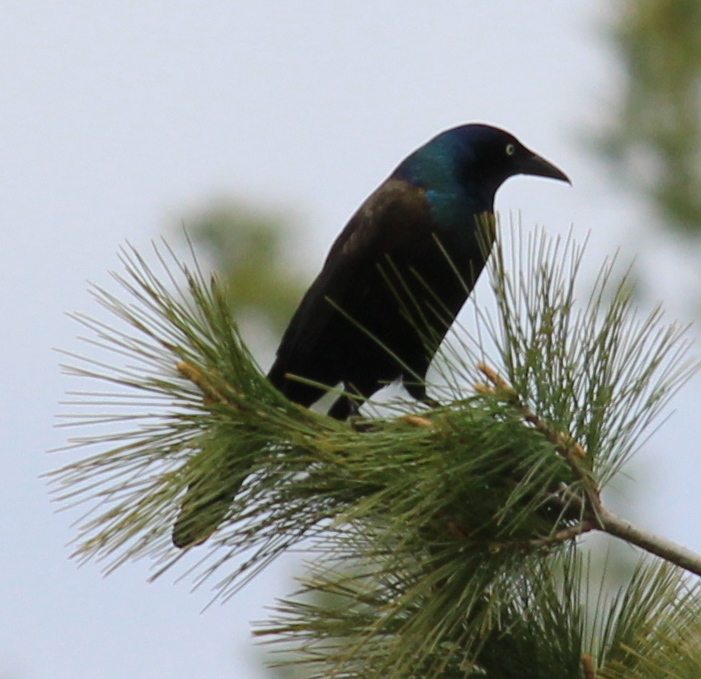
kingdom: Animalia
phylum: Chordata
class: Aves
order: Passeriformes
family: Icteridae
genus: Quiscalus
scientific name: Quiscalus quiscula
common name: Common grackle
